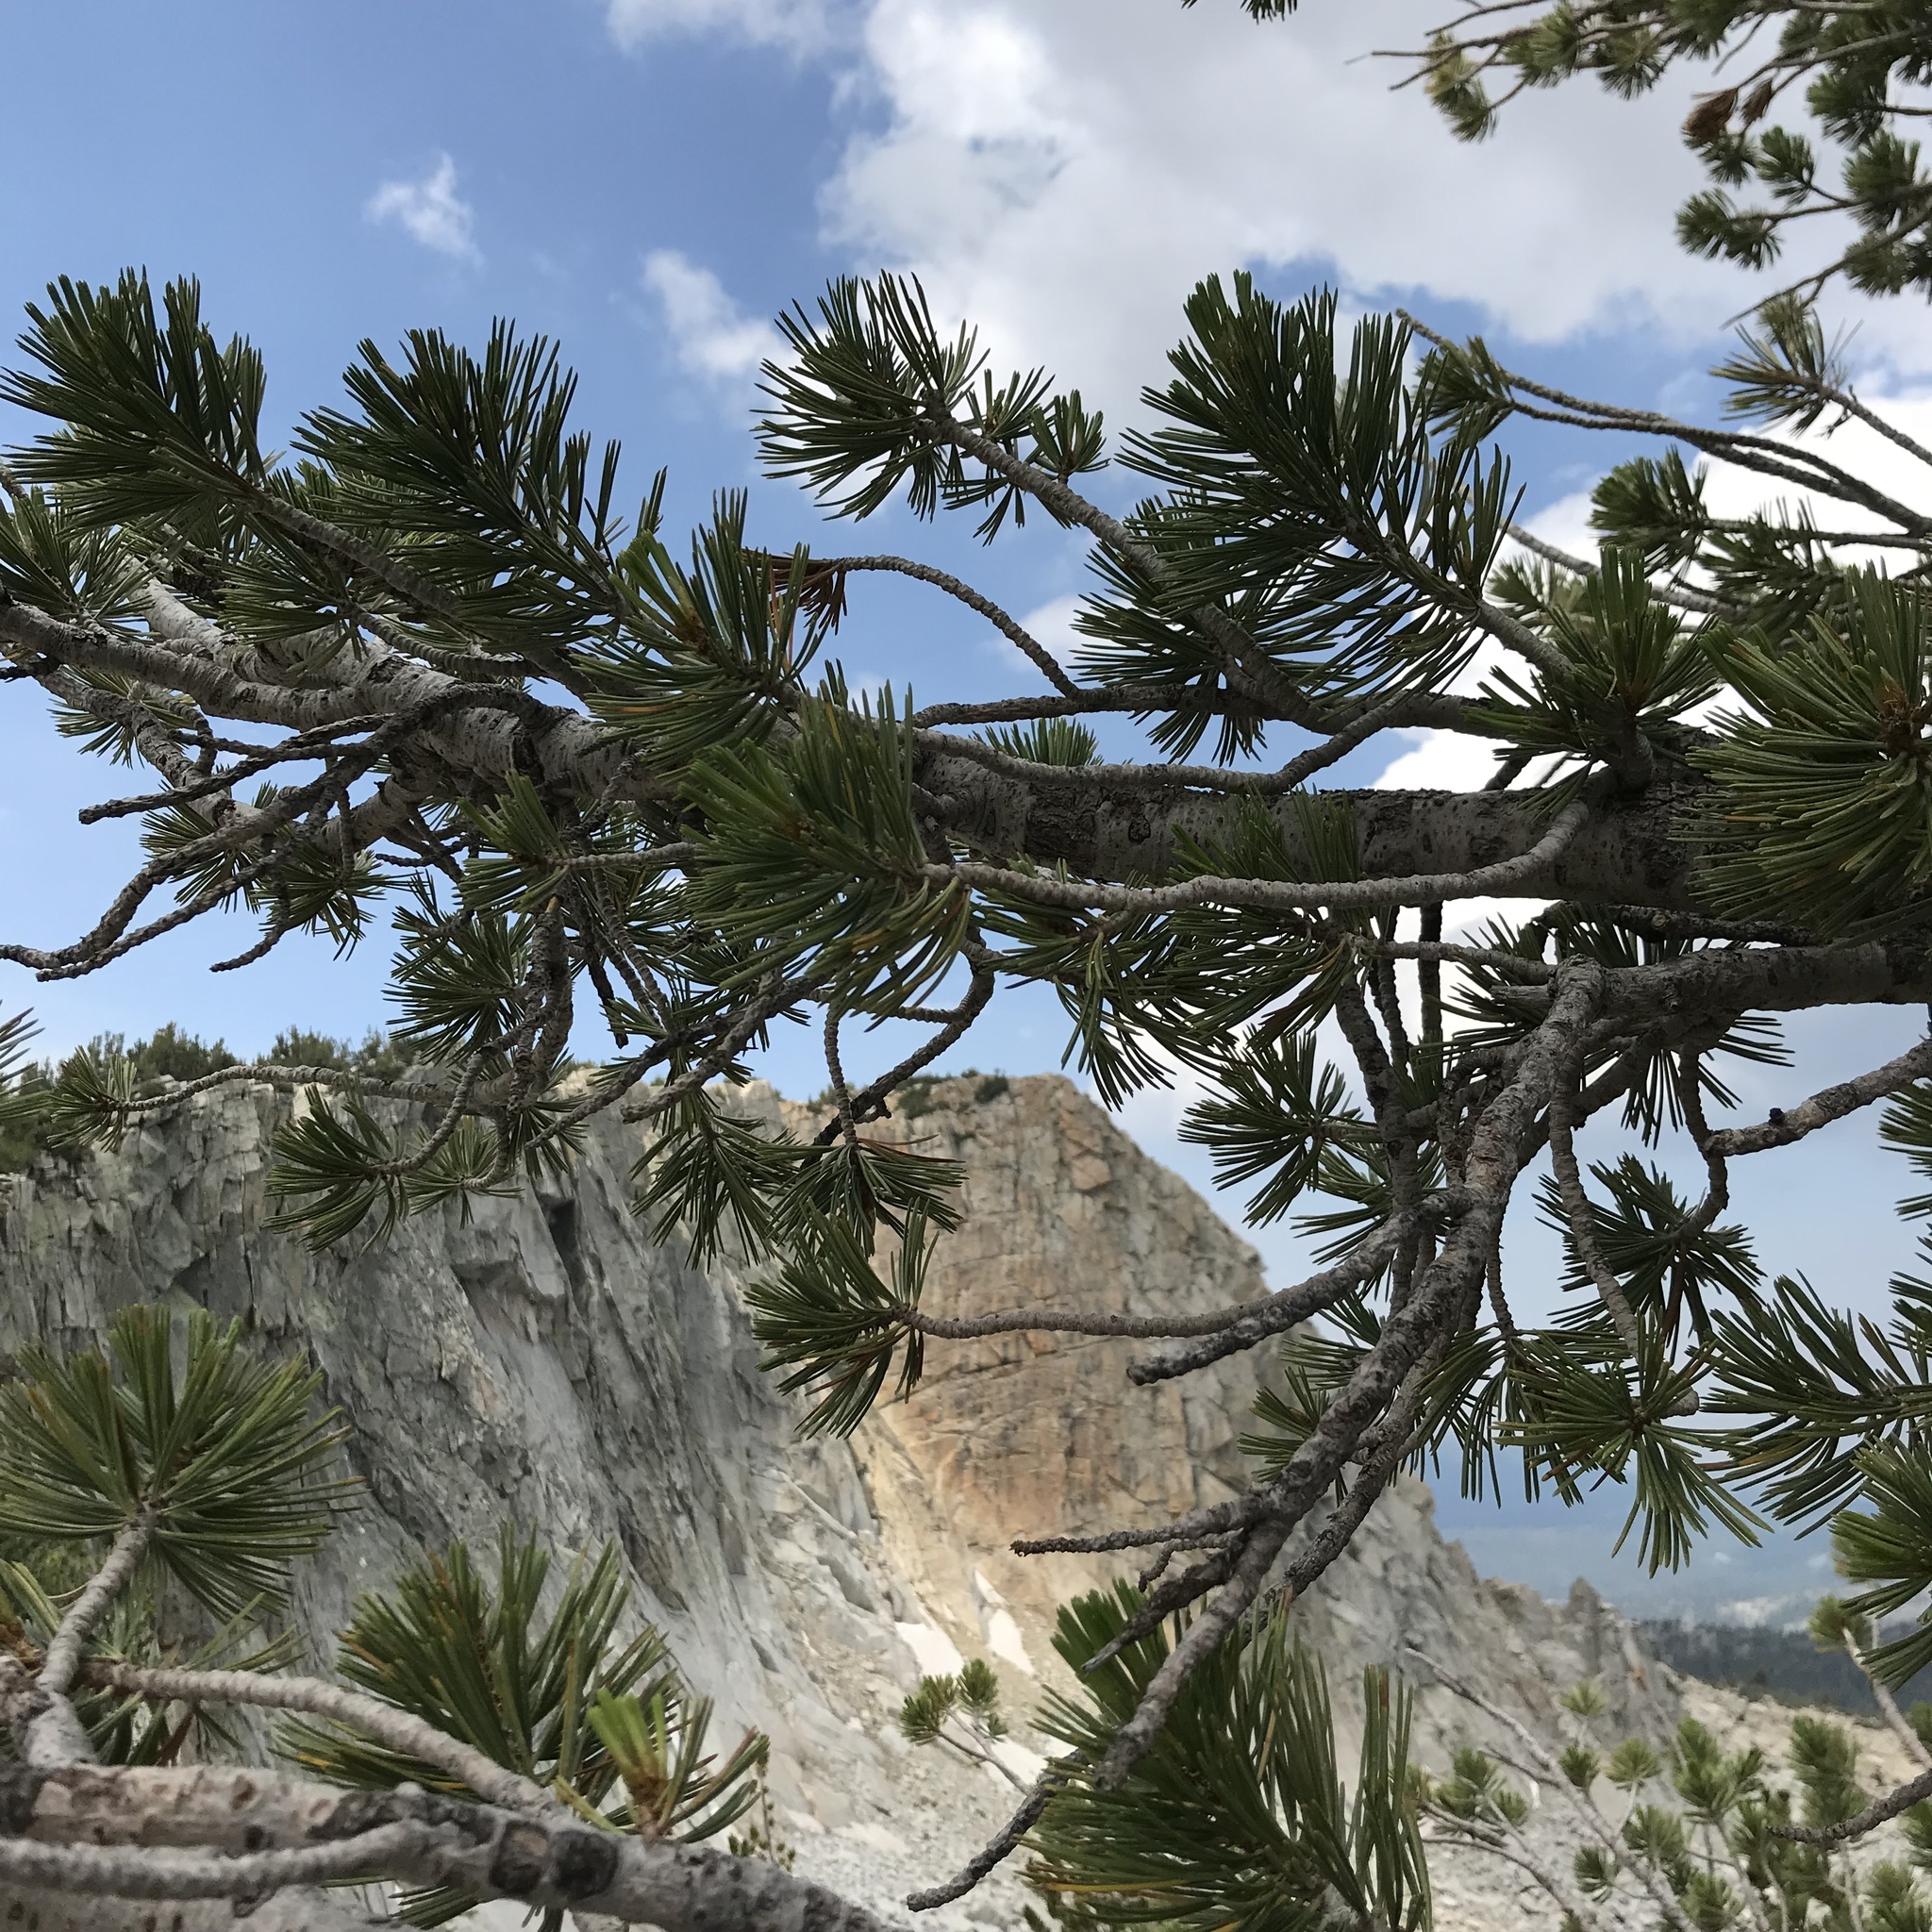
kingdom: Plantae
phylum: Tracheophyta
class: Pinopsida
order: Pinales
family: Pinaceae
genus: Pinus
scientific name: Pinus albicaulis
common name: Whitebark pine
